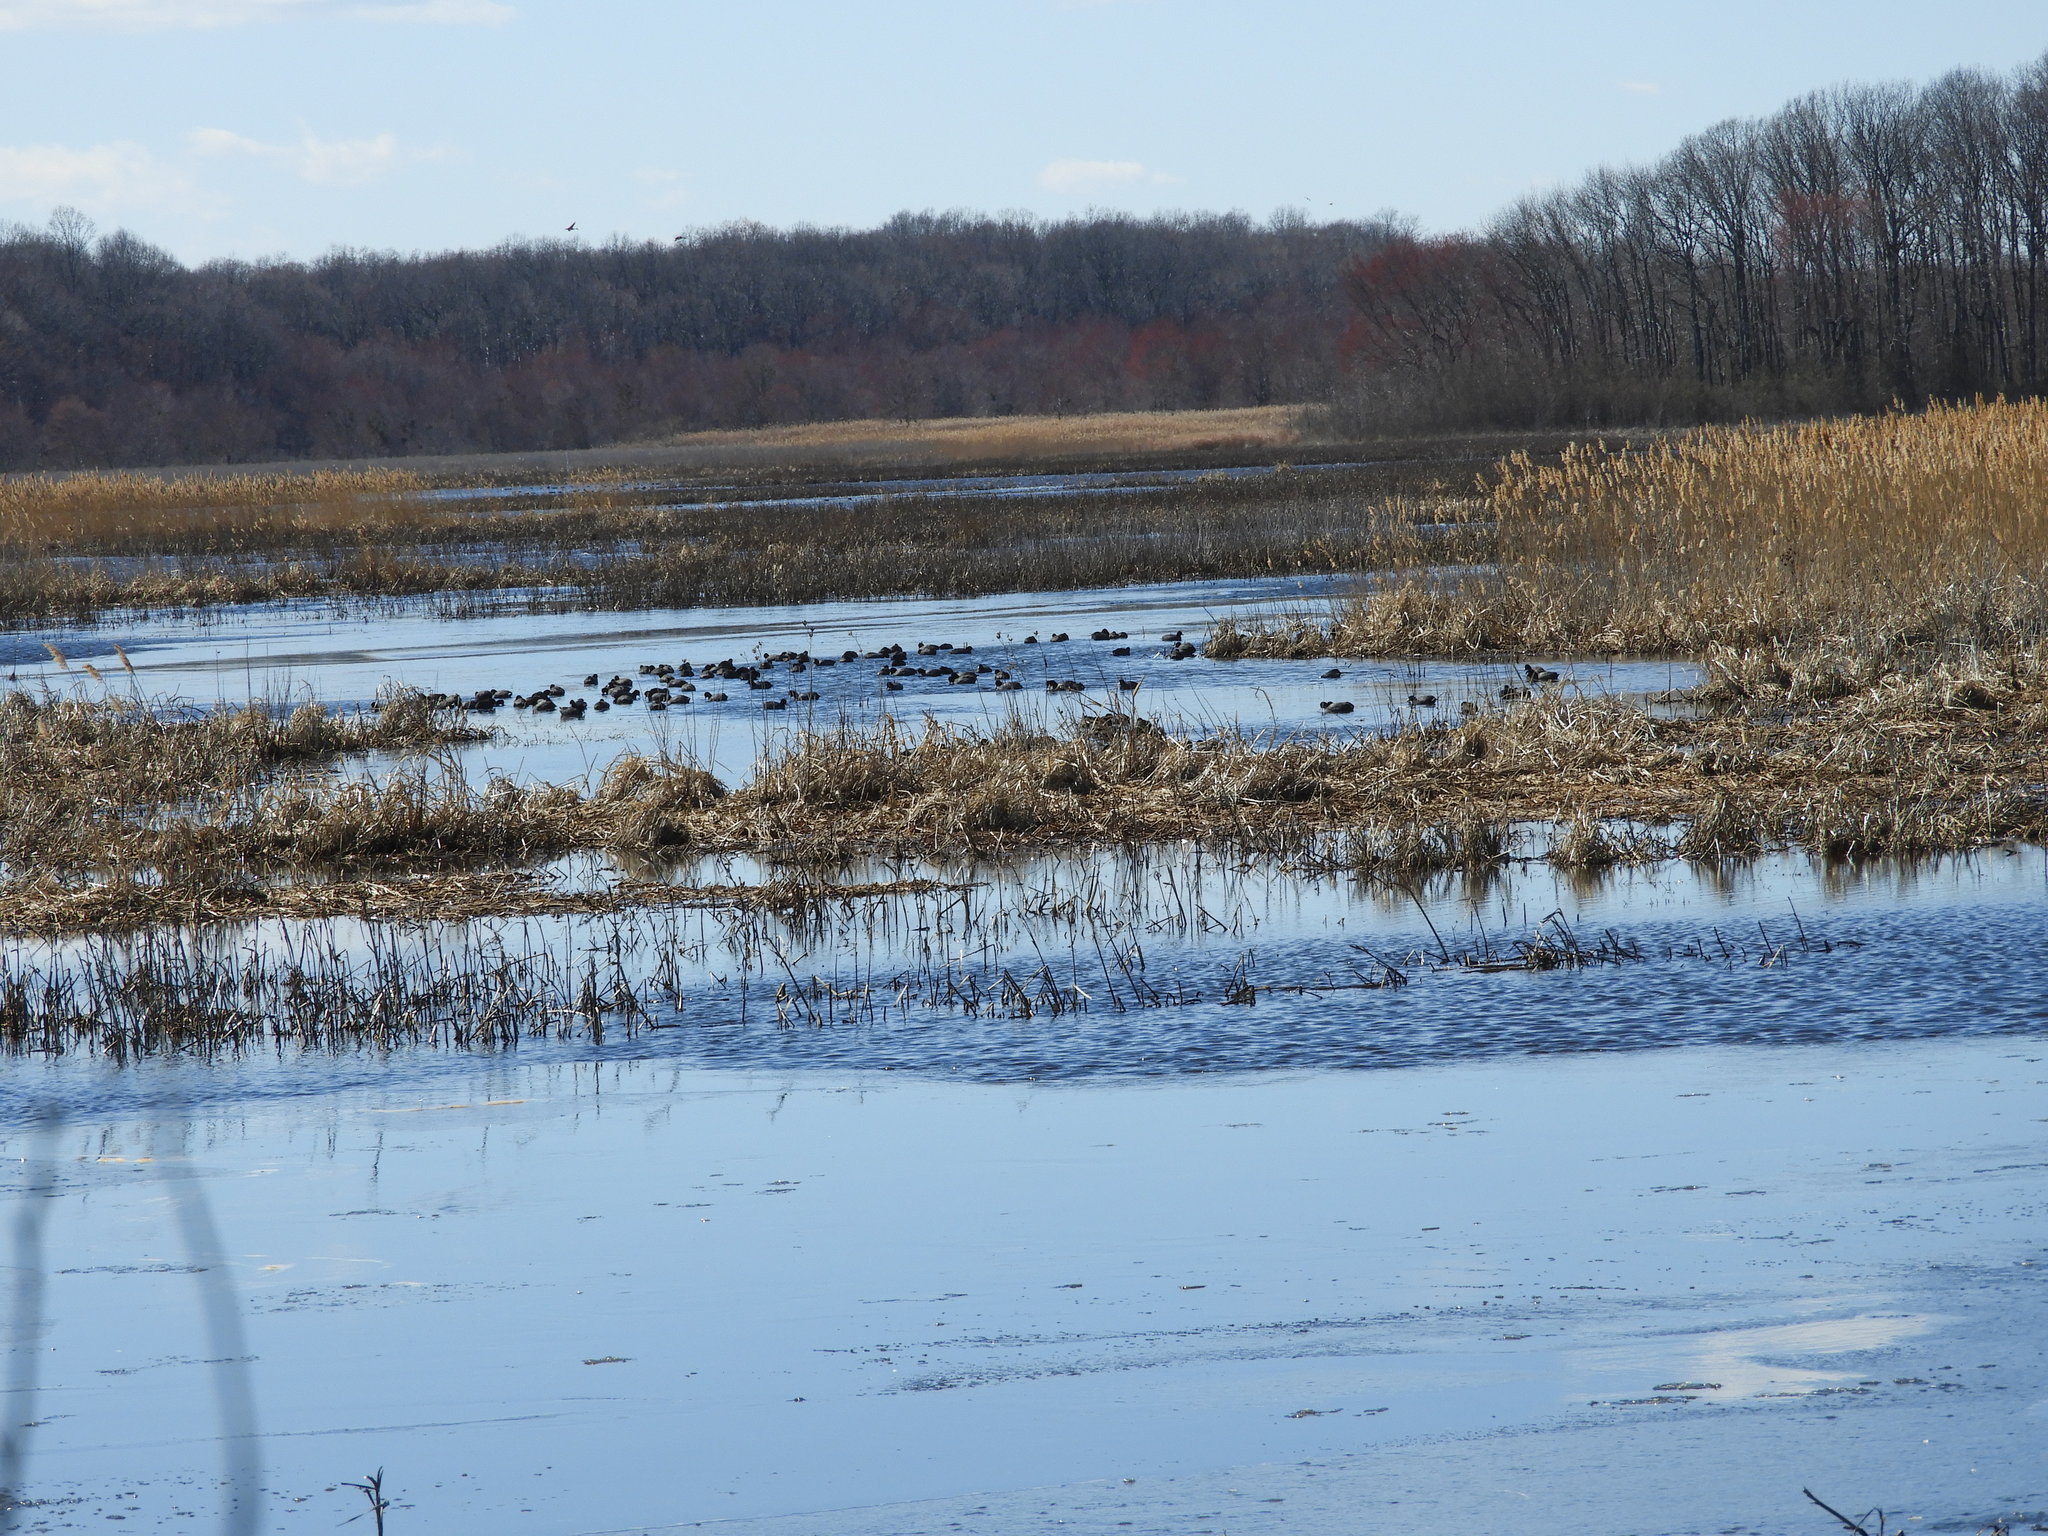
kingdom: Animalia
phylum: Chordata
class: Aves
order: Gruiformes
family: Rallidae
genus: Fulica
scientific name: Fulica americana
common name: American coot
